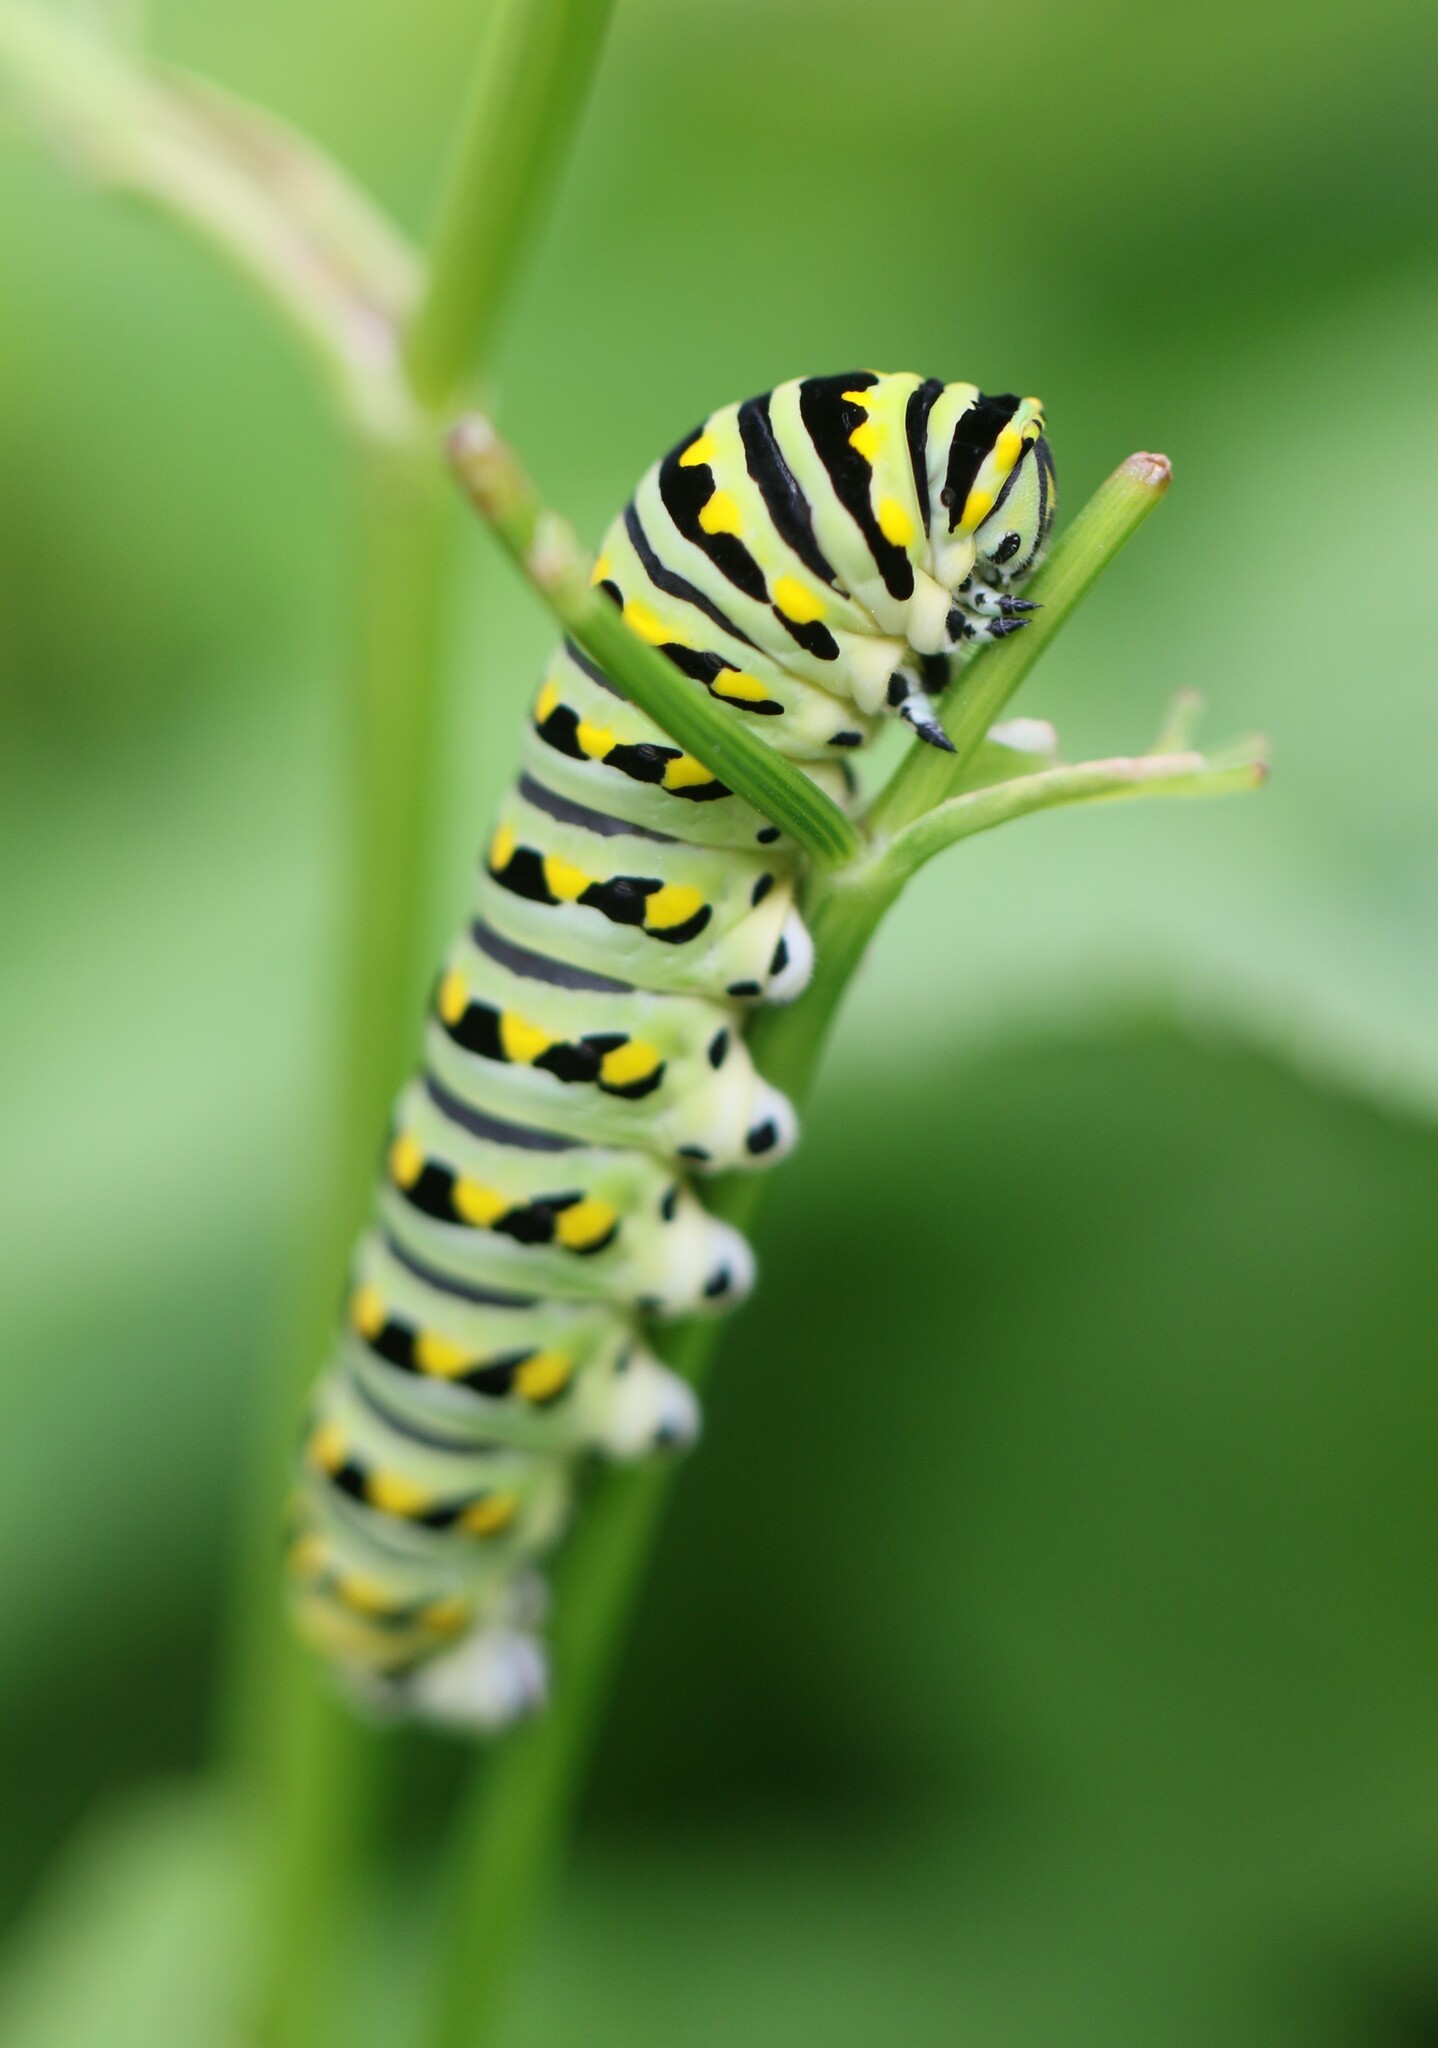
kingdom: Animalia
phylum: Arthropoda
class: Insecta
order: Lepidoptera
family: Papilionidae
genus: Papilio
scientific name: Papilio polyxenes
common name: Black swallowtail
